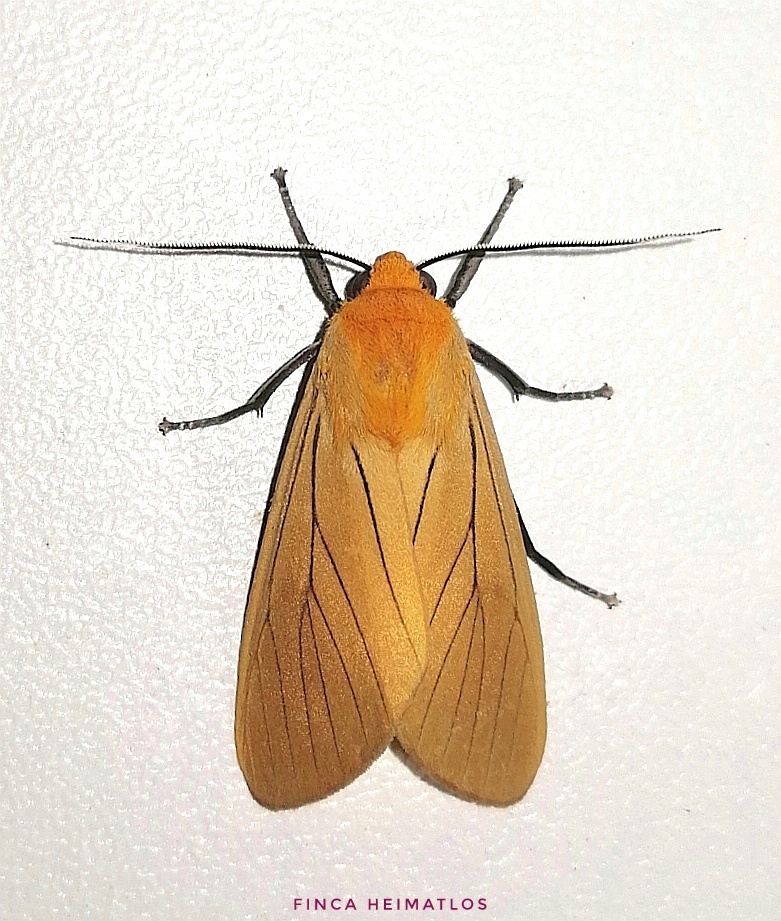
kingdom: Animalia
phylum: Arthropoda
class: Insecta
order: Lepidoptera
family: Erebidae
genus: Melese
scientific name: Melese
